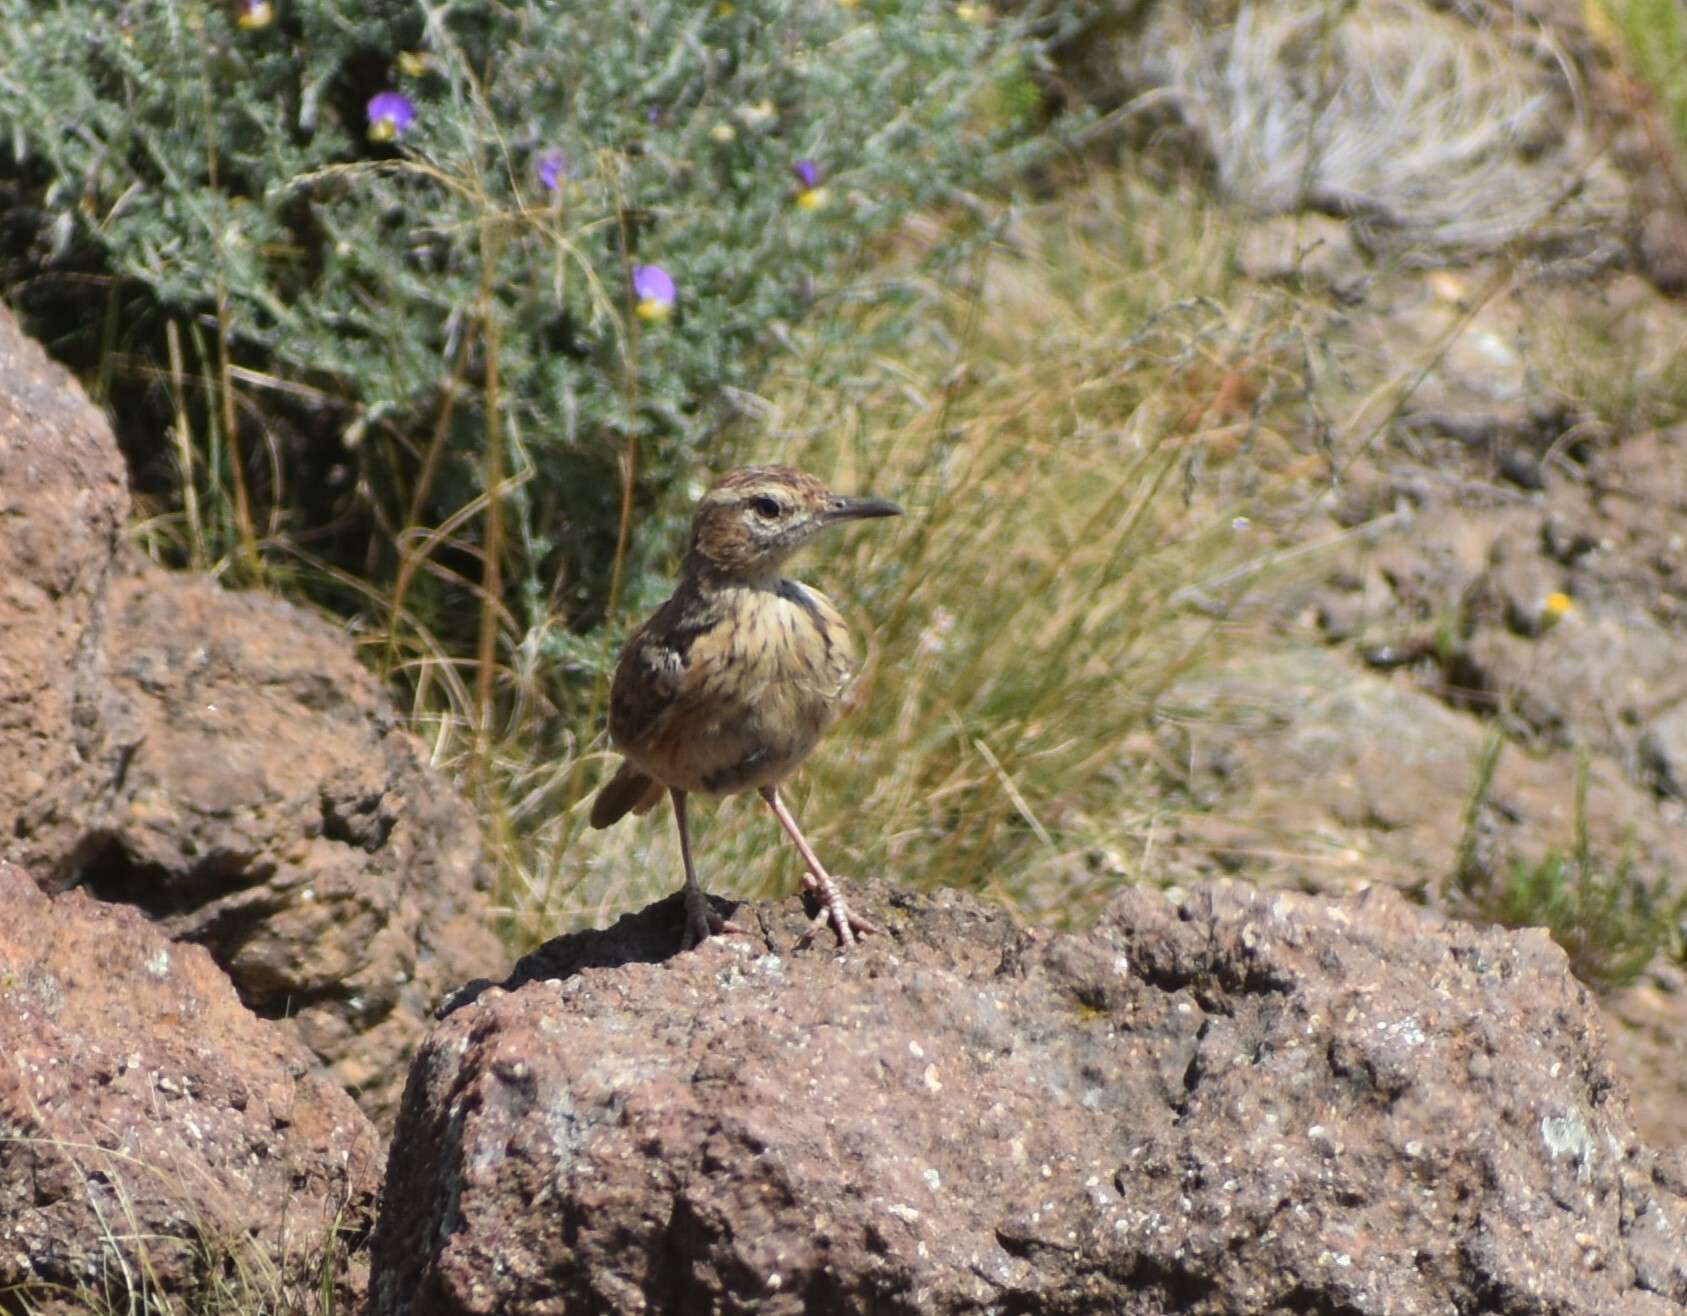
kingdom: Animalia
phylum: Chordata
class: Aves
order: Passeriformes
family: Alaudidae
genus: Certhilauda
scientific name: Certhilauda semitorquata
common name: Eastern long-billed lark
